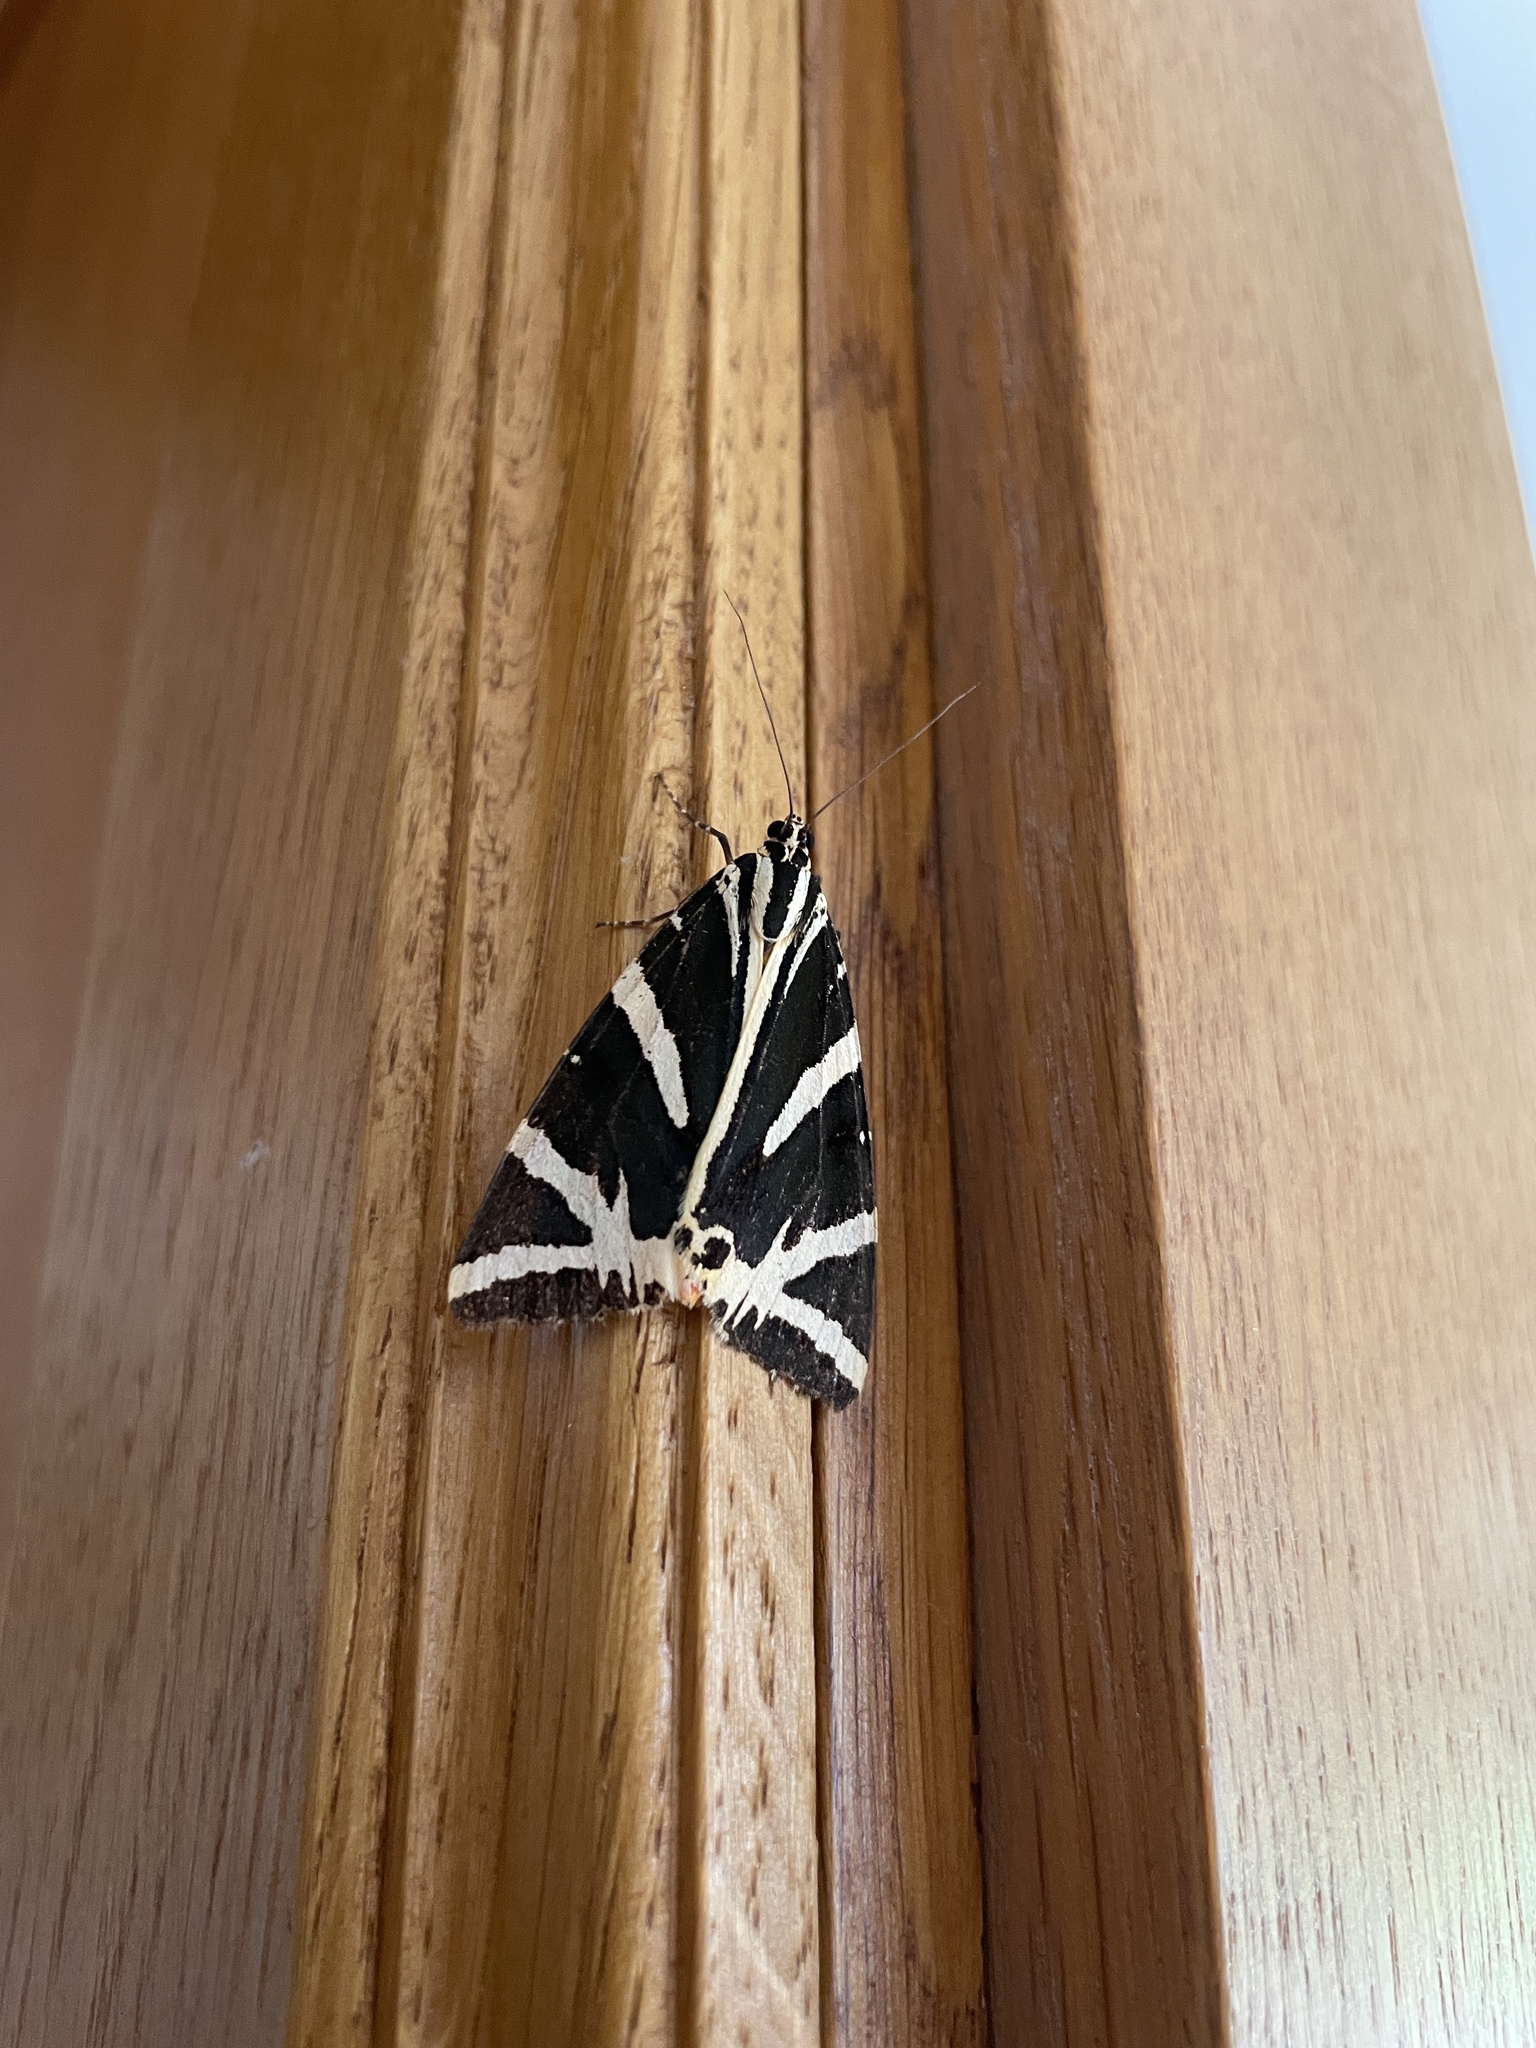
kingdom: Animalia
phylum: Arthropoda
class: Insecta
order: Lepidoptera
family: Erebidae
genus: Euplagia
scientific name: Euplagia quadripunctaria
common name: Jersey tiger
